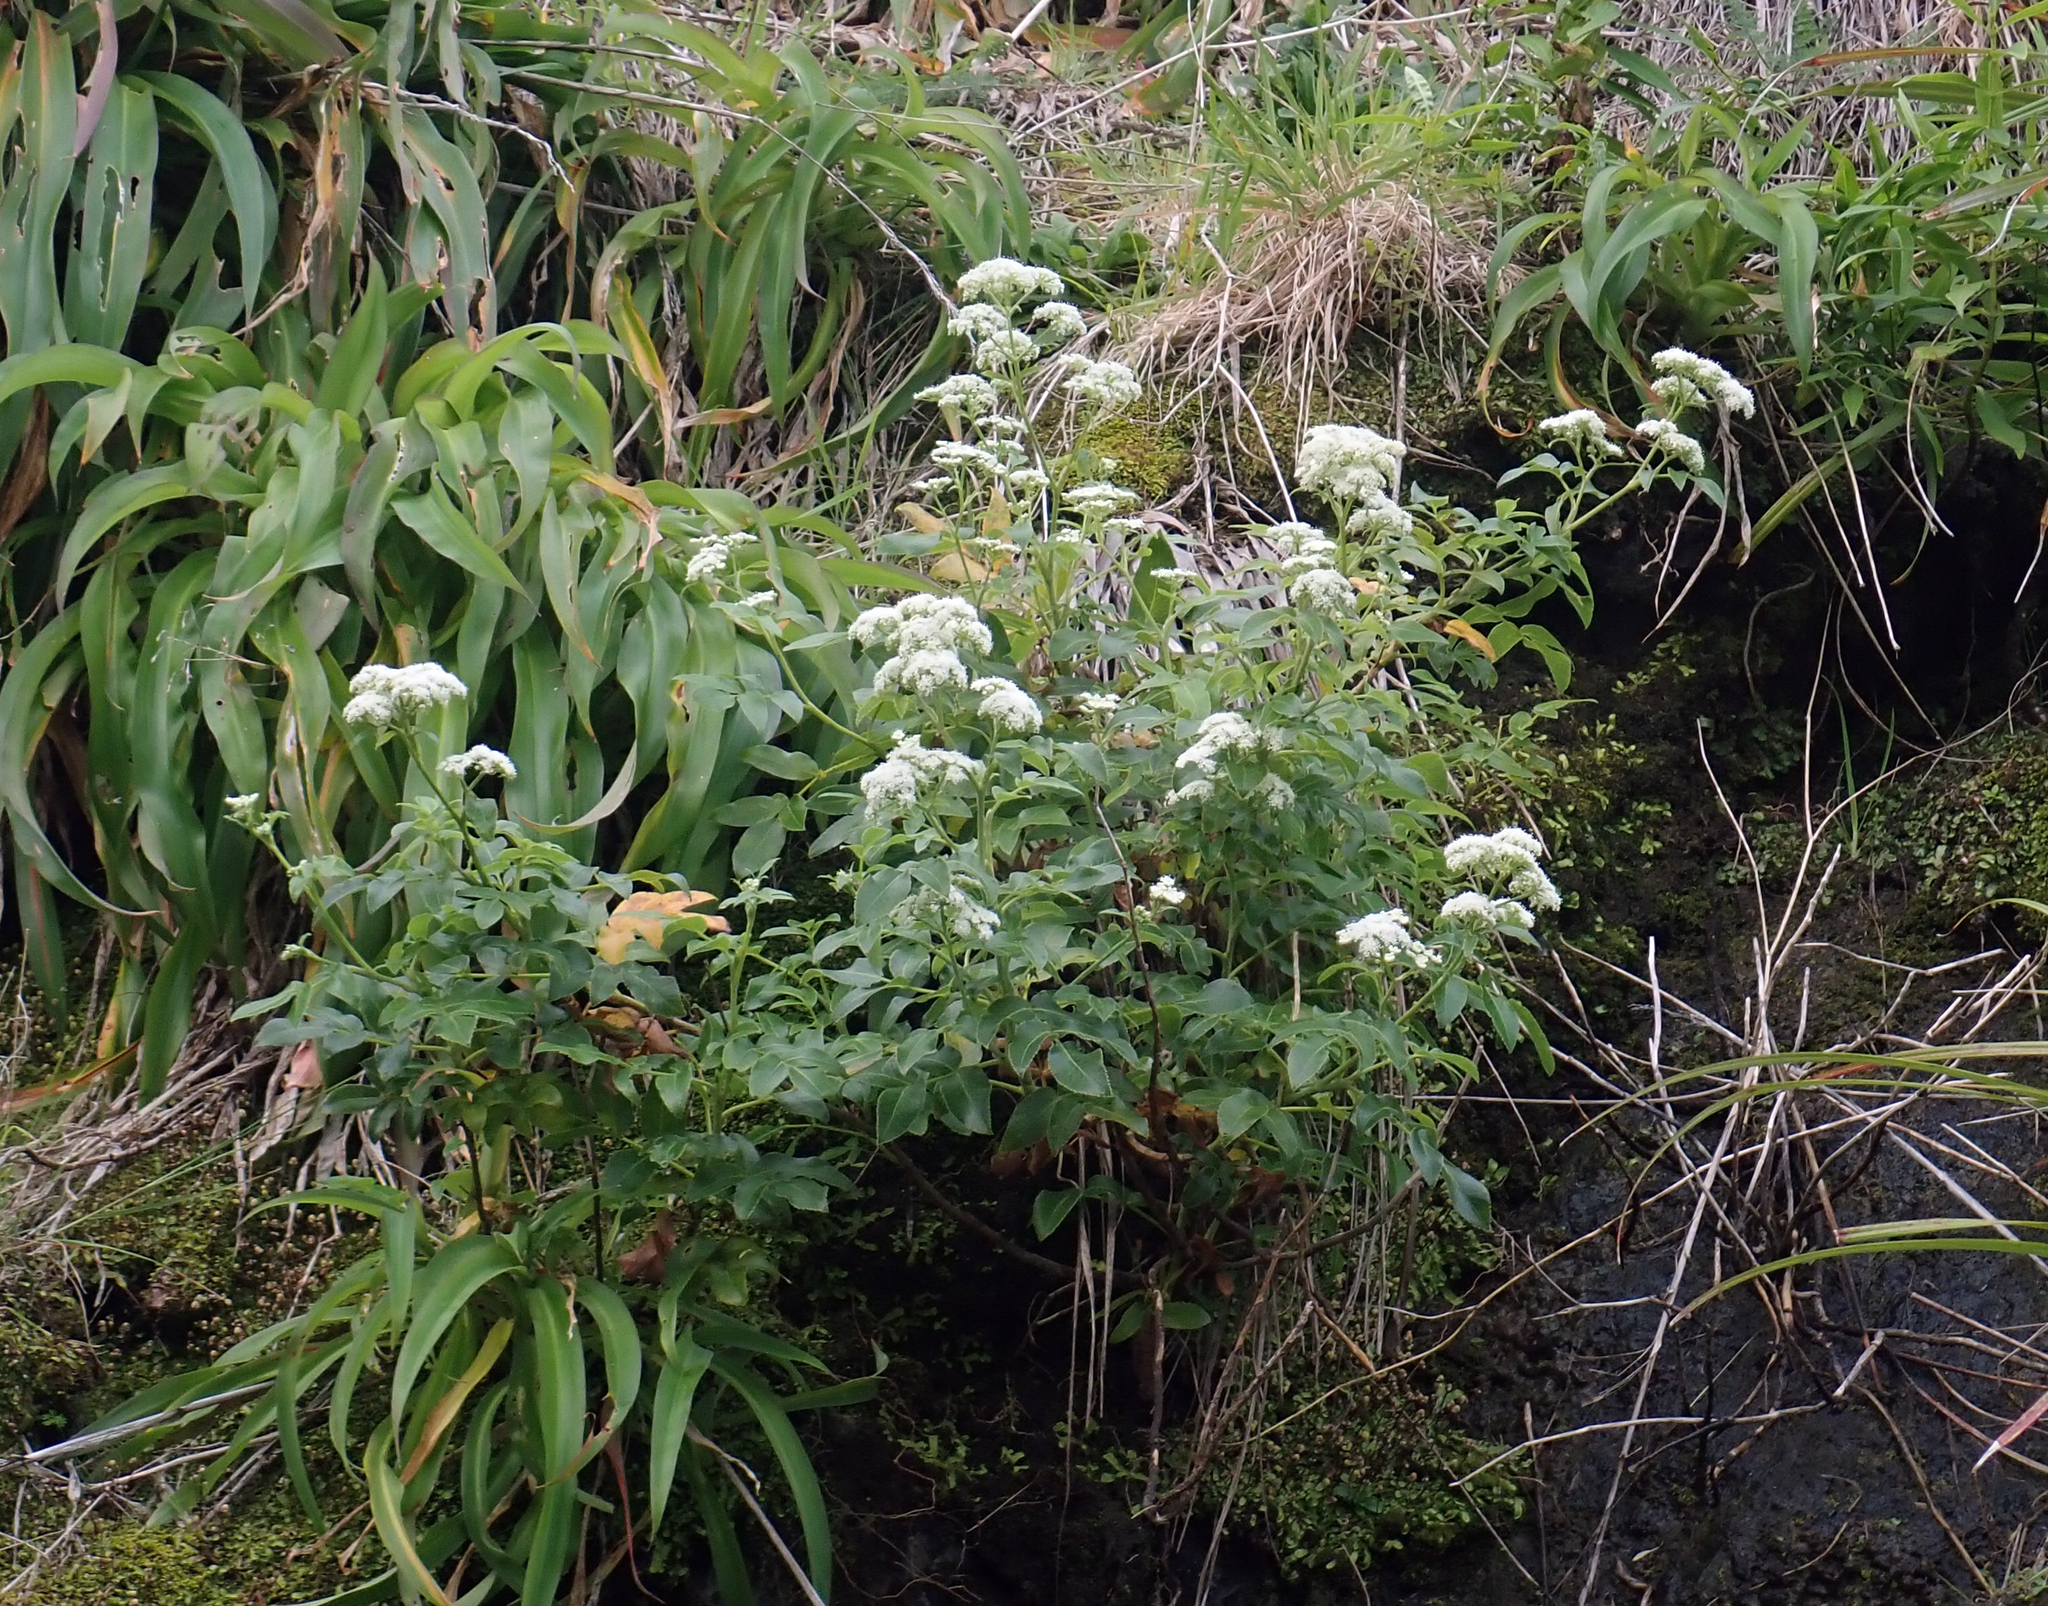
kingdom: Plantae
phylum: Tracheophyta
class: Magnoliopsida
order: Apiales
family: Apiaceae
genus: Scandia
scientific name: Scandia rosifolia
